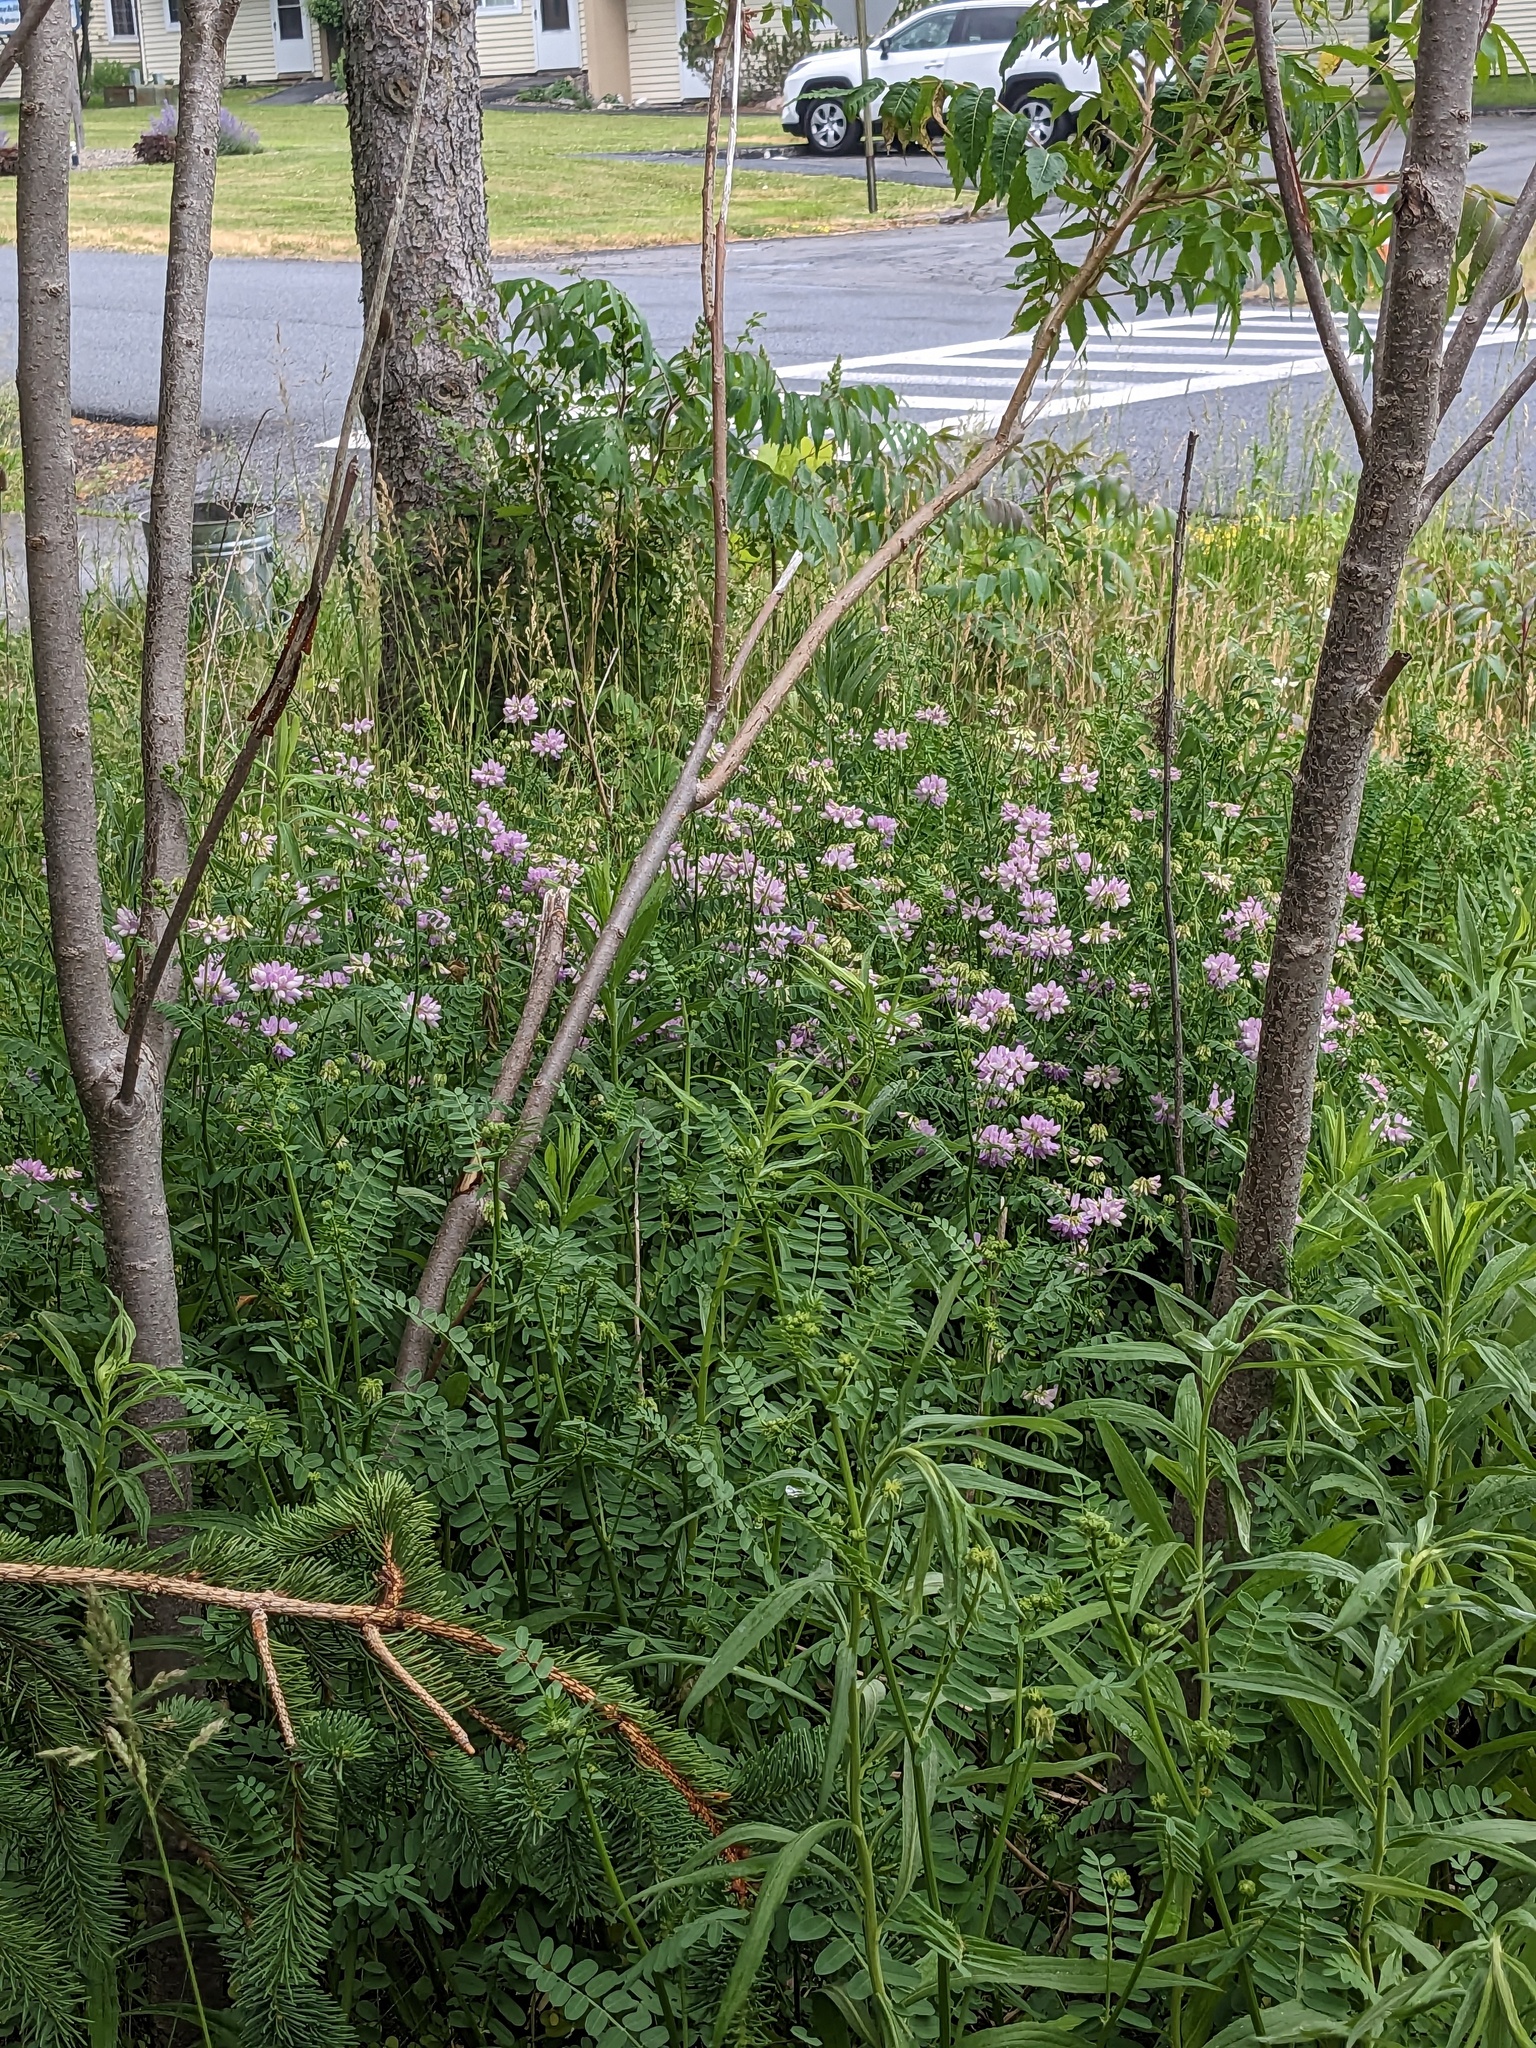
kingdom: Plantae
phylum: Tracheophyta
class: Magnoliopsida
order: Fabales
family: Fabaceae
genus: Coronilla
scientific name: Coronilla varia
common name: Crownvetch
